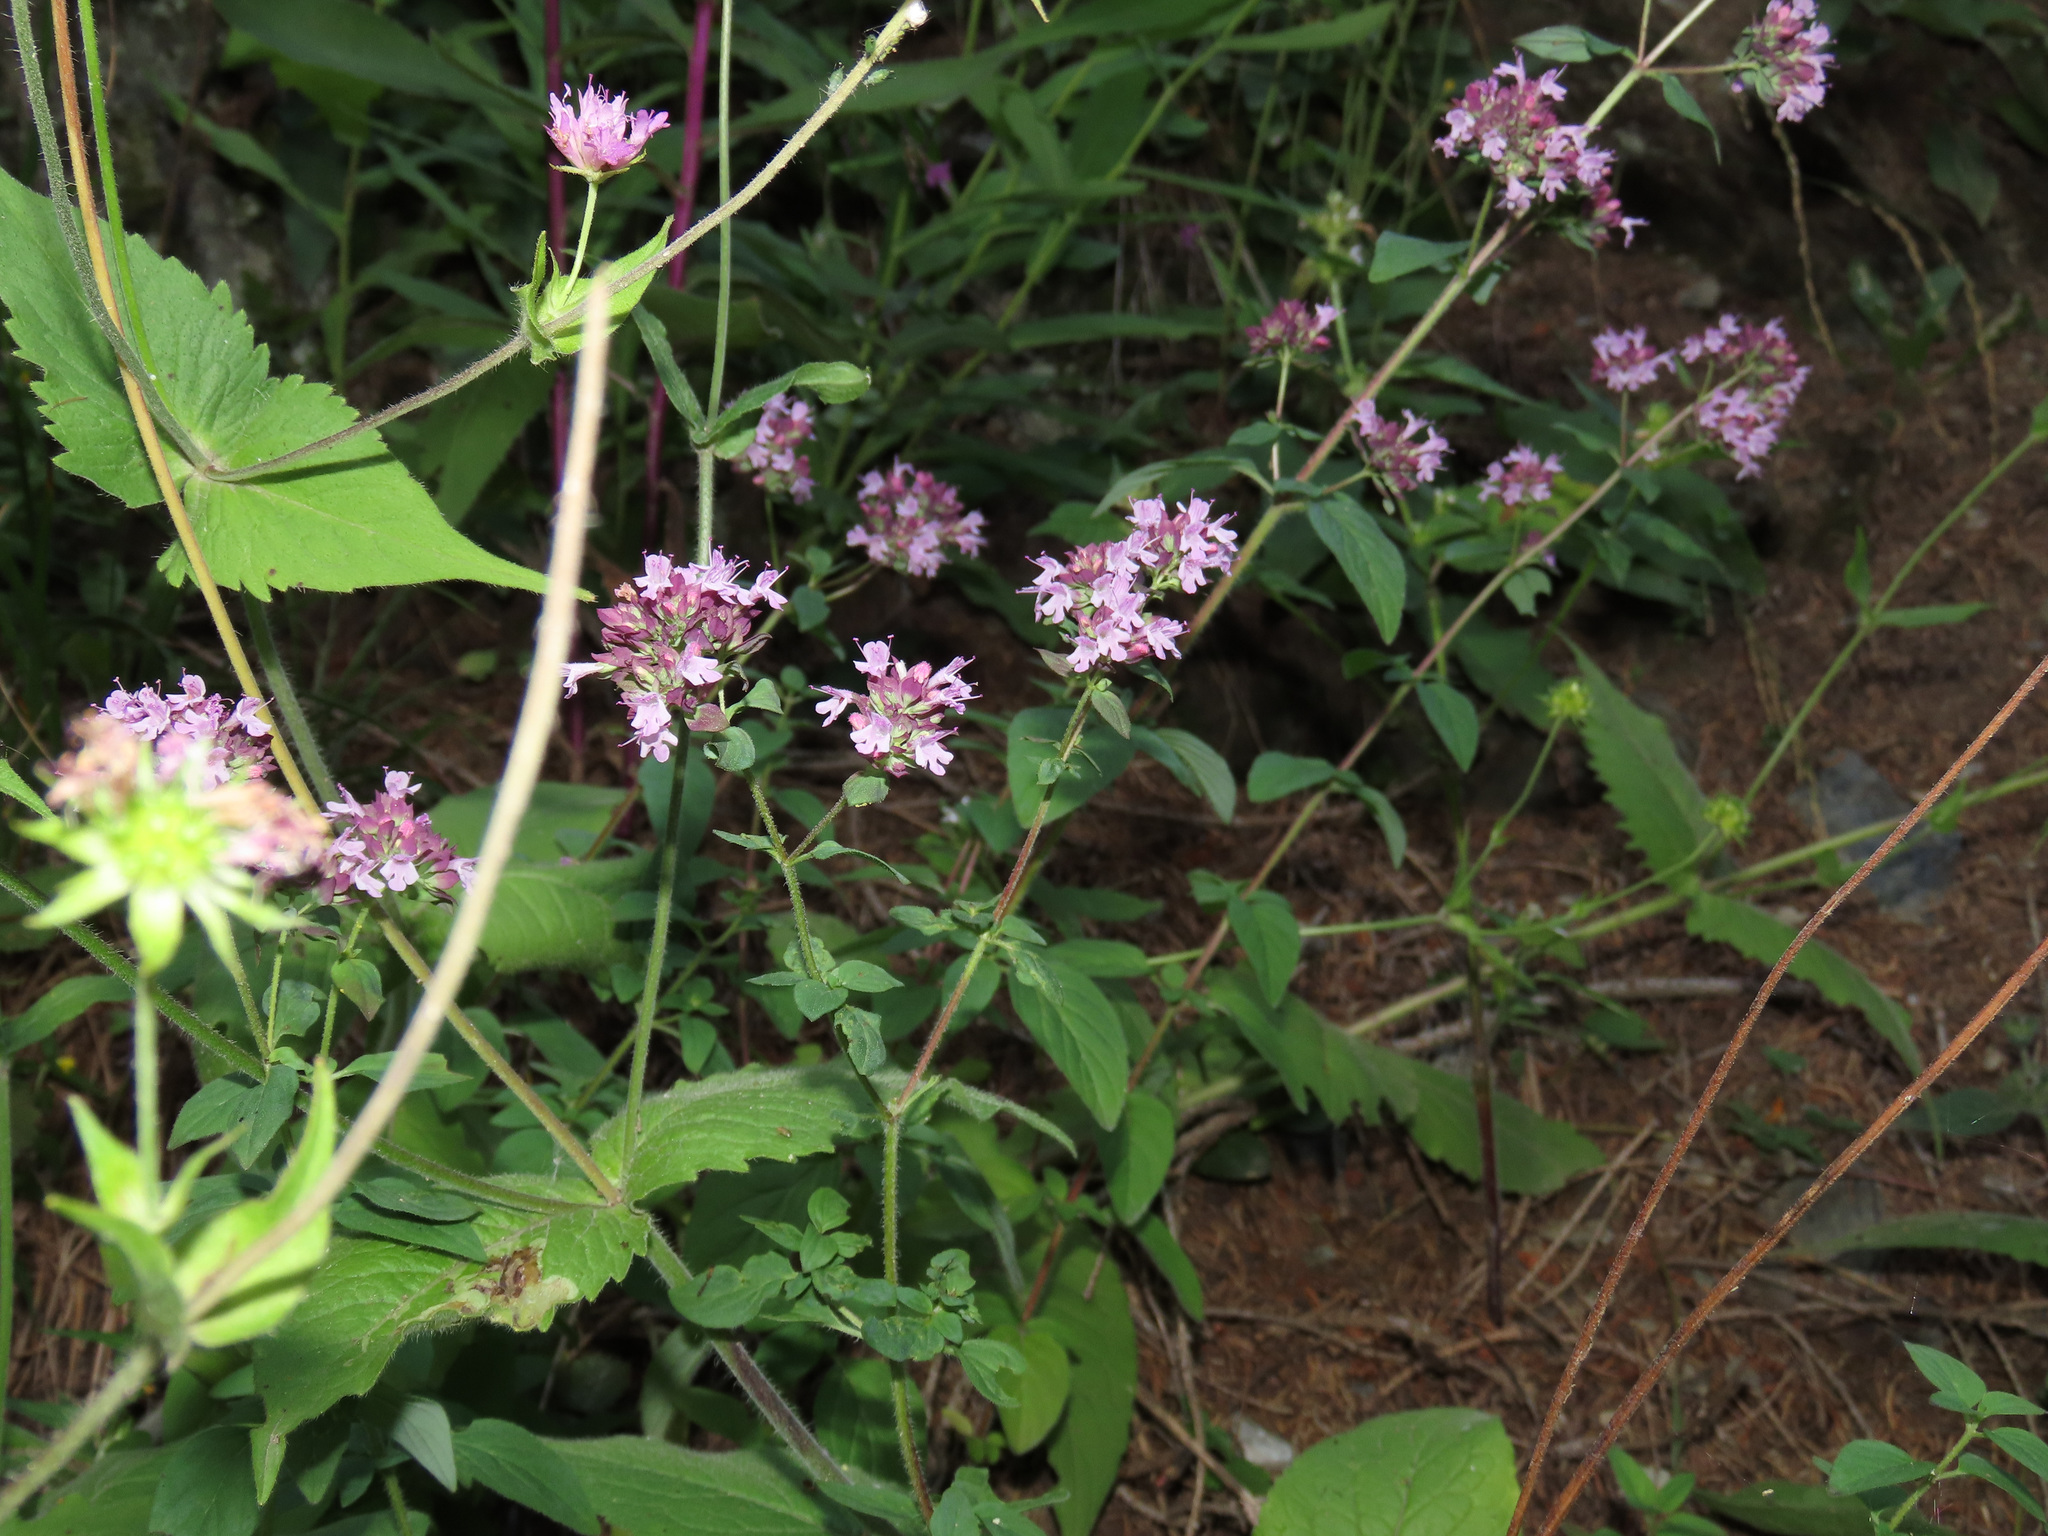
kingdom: Plantae
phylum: Tracheophyta
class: Magnoliopsida
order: Lamiales
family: Lamiaceae
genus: Origanum
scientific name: Origanum vulgare
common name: Wild marjoram
